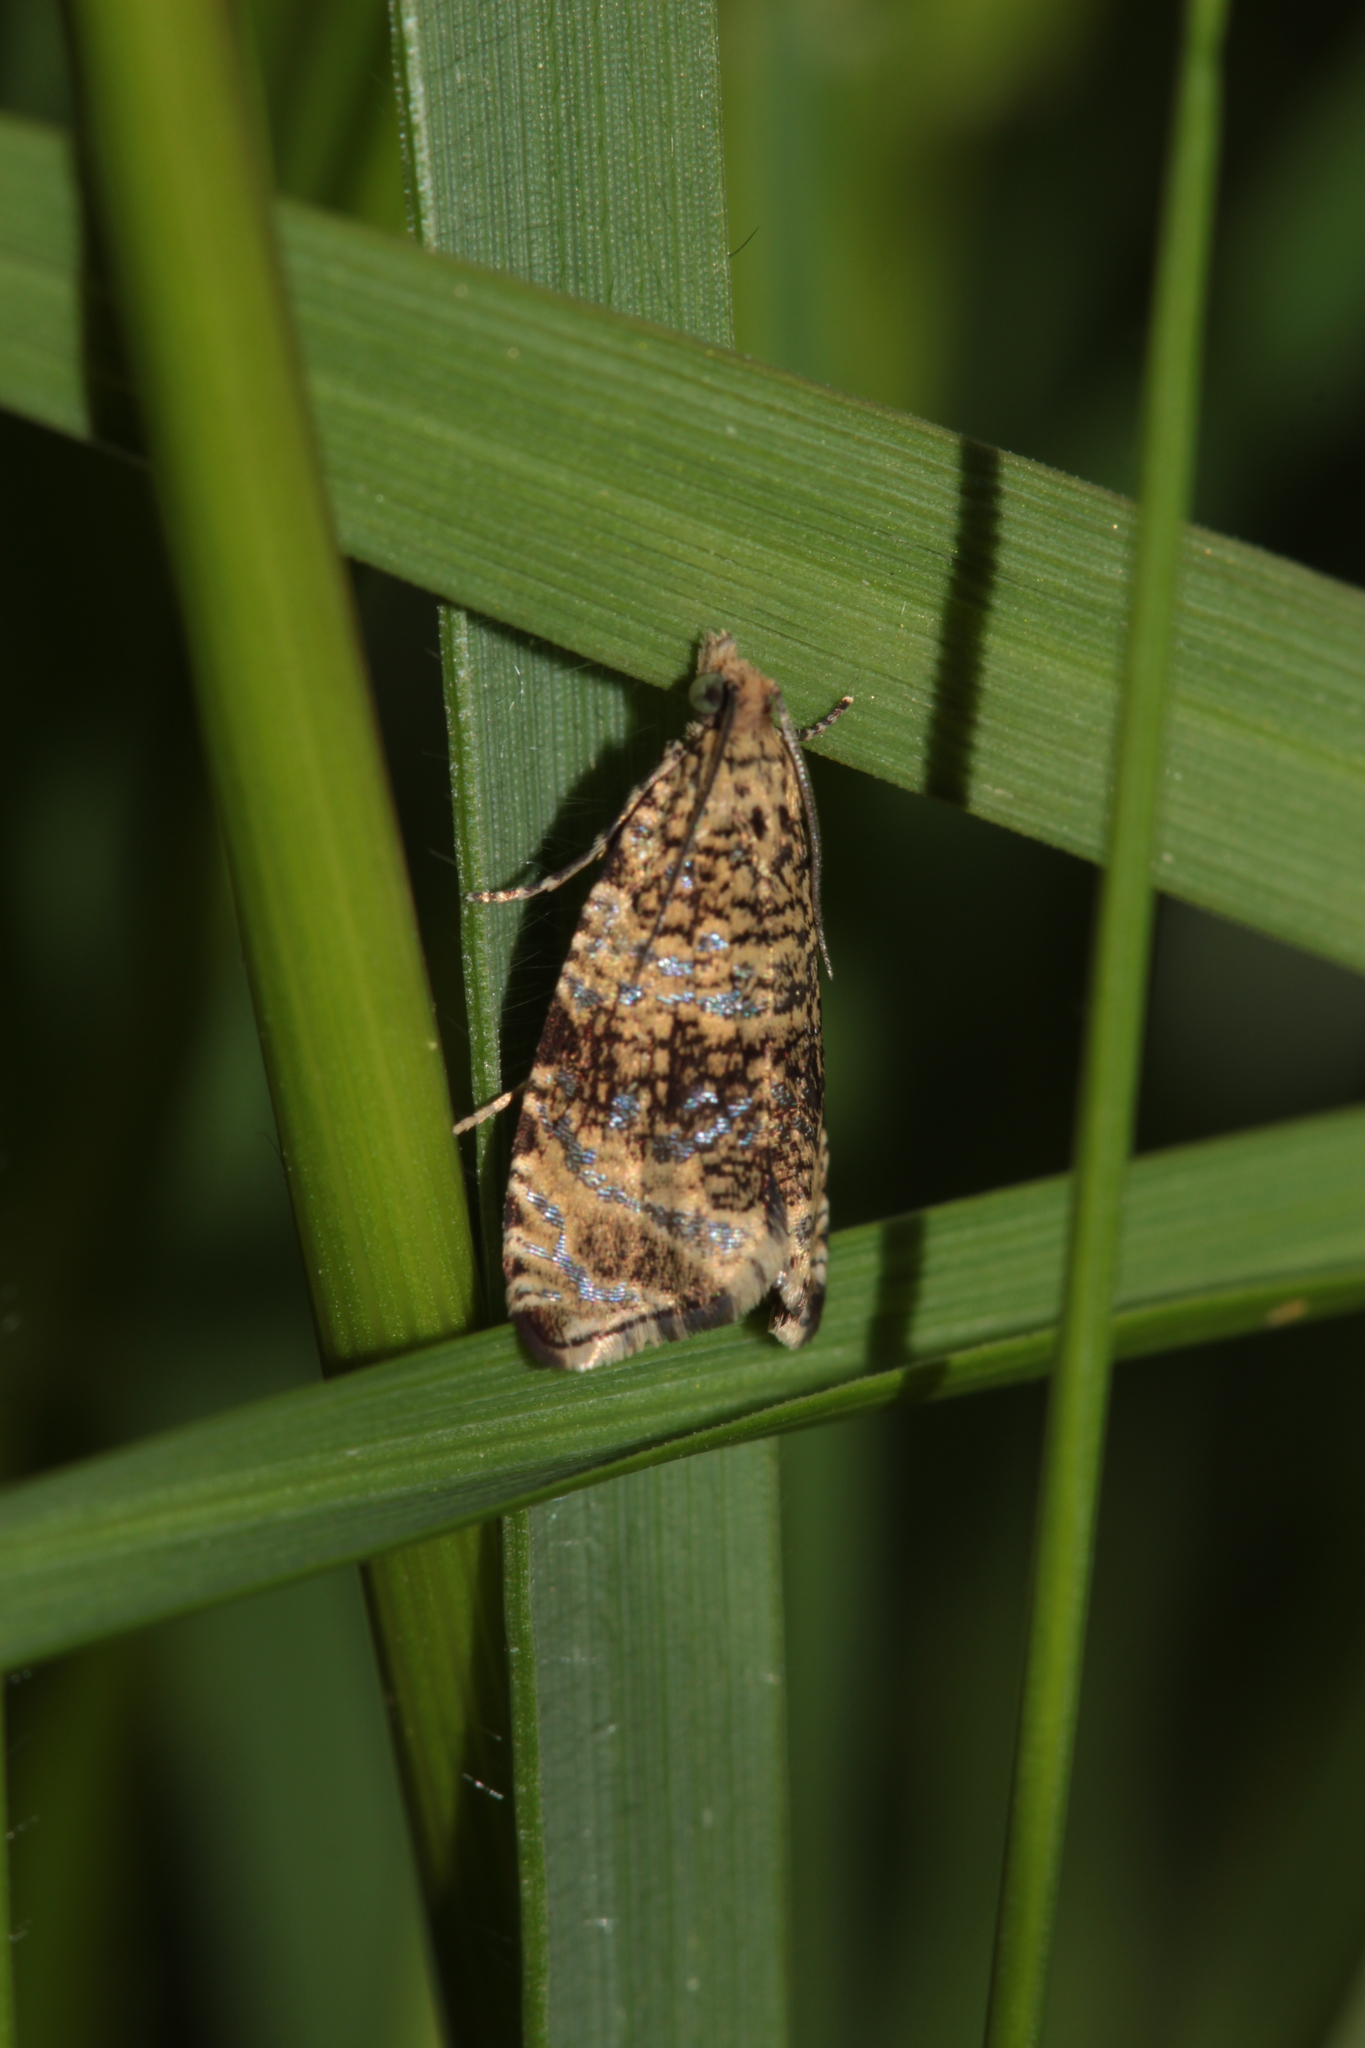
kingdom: Animalia
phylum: Arthropoda
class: Insecta
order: Lepidoptera
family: Tortricidae
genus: Syricoris
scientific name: Syricoris lacunana
